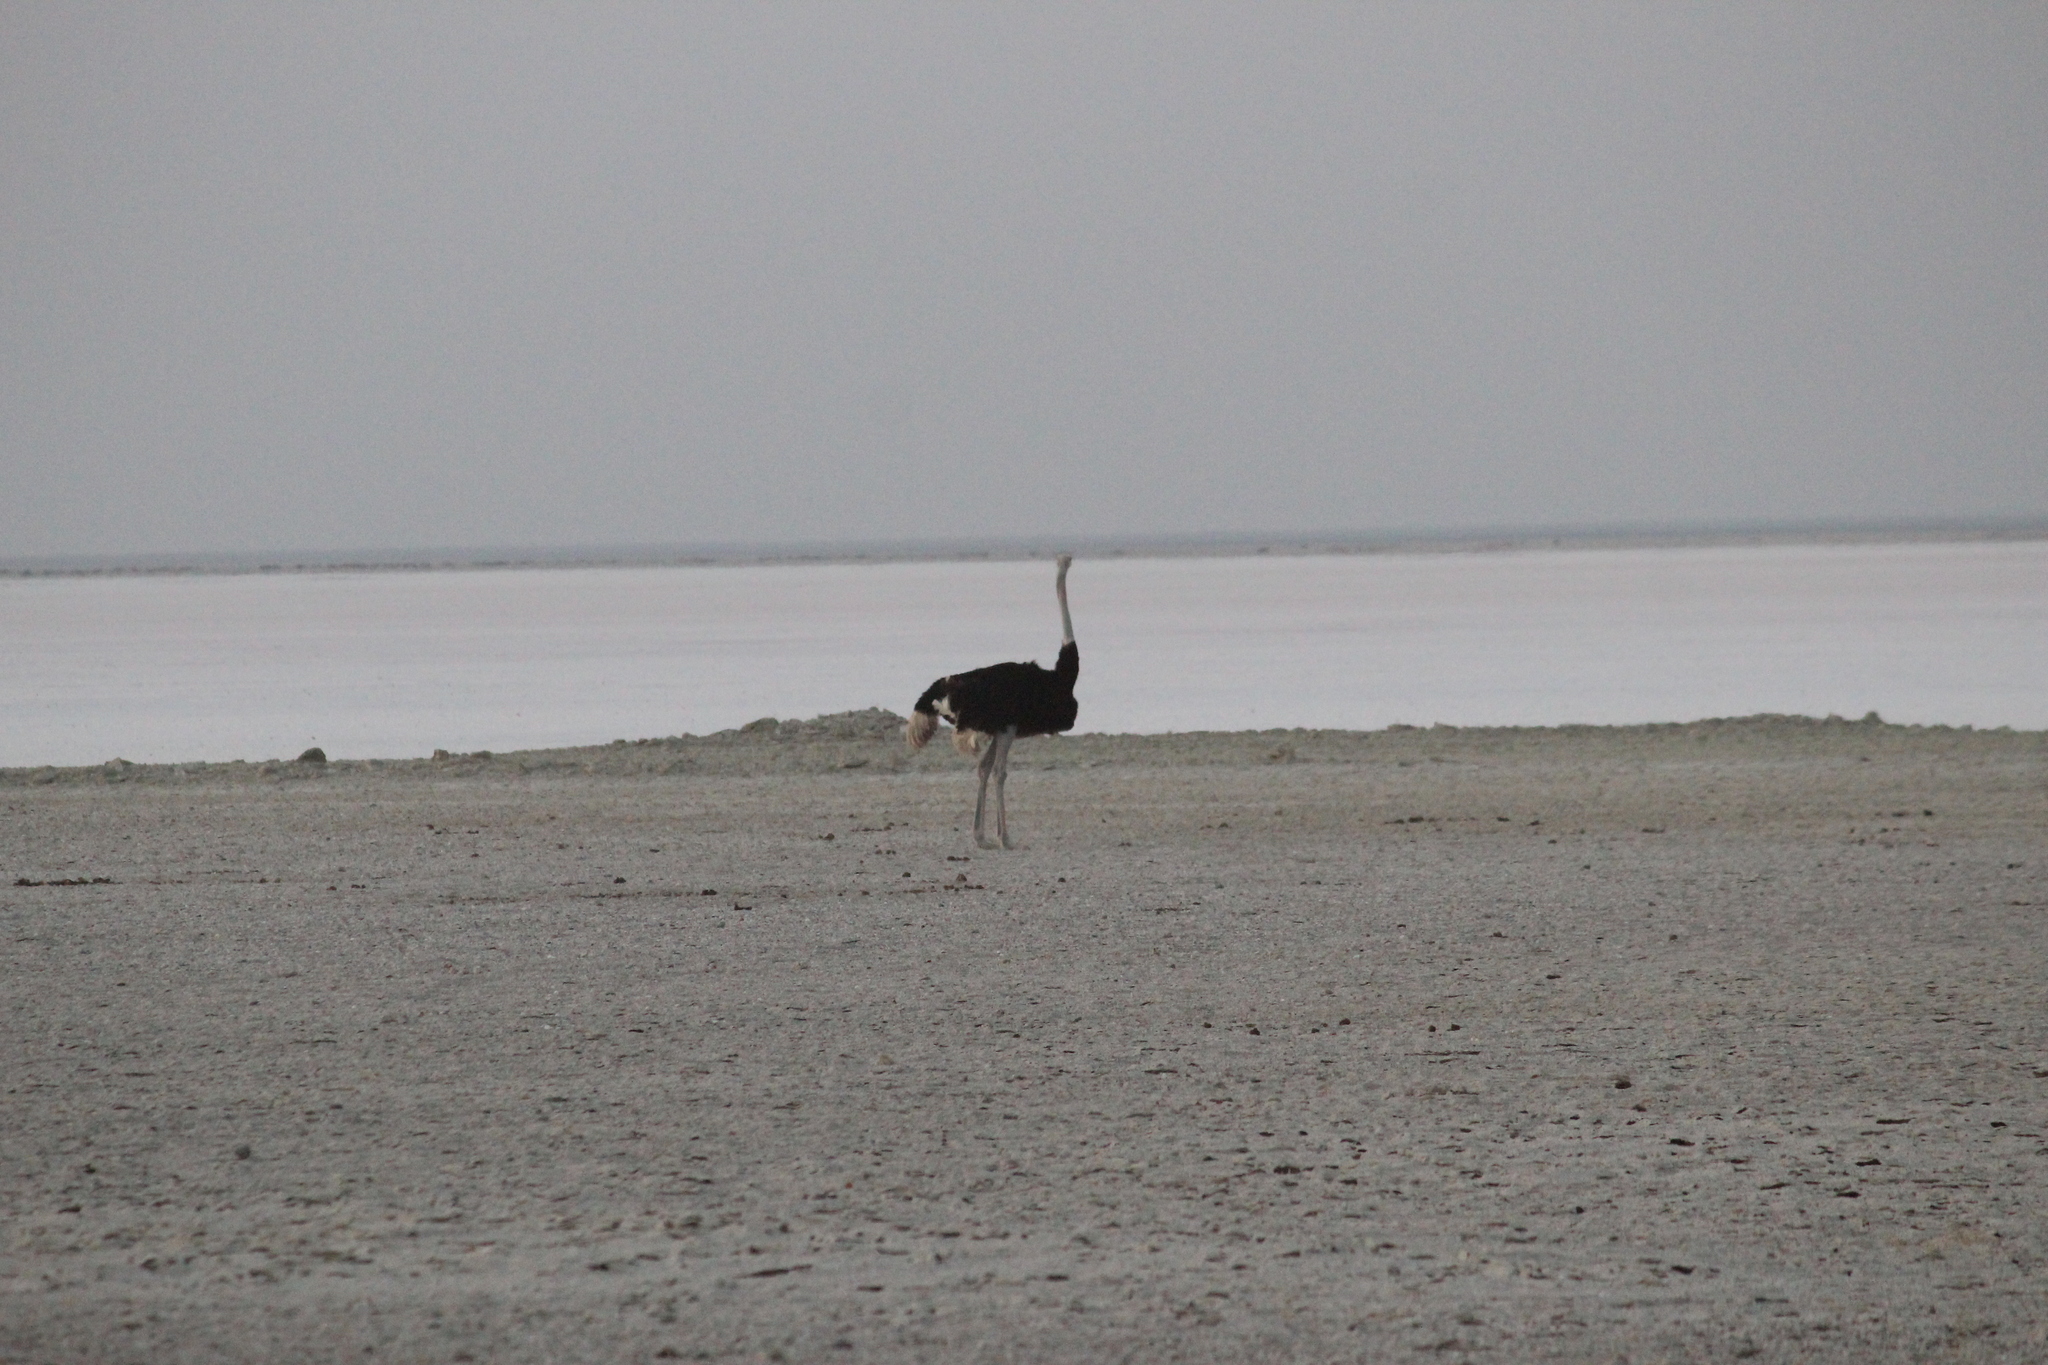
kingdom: Animalia
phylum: Chordata
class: Aves
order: Struthioniformes
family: Struthionidae
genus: Struthio
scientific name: Struthio camelus
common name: Common ostrich
